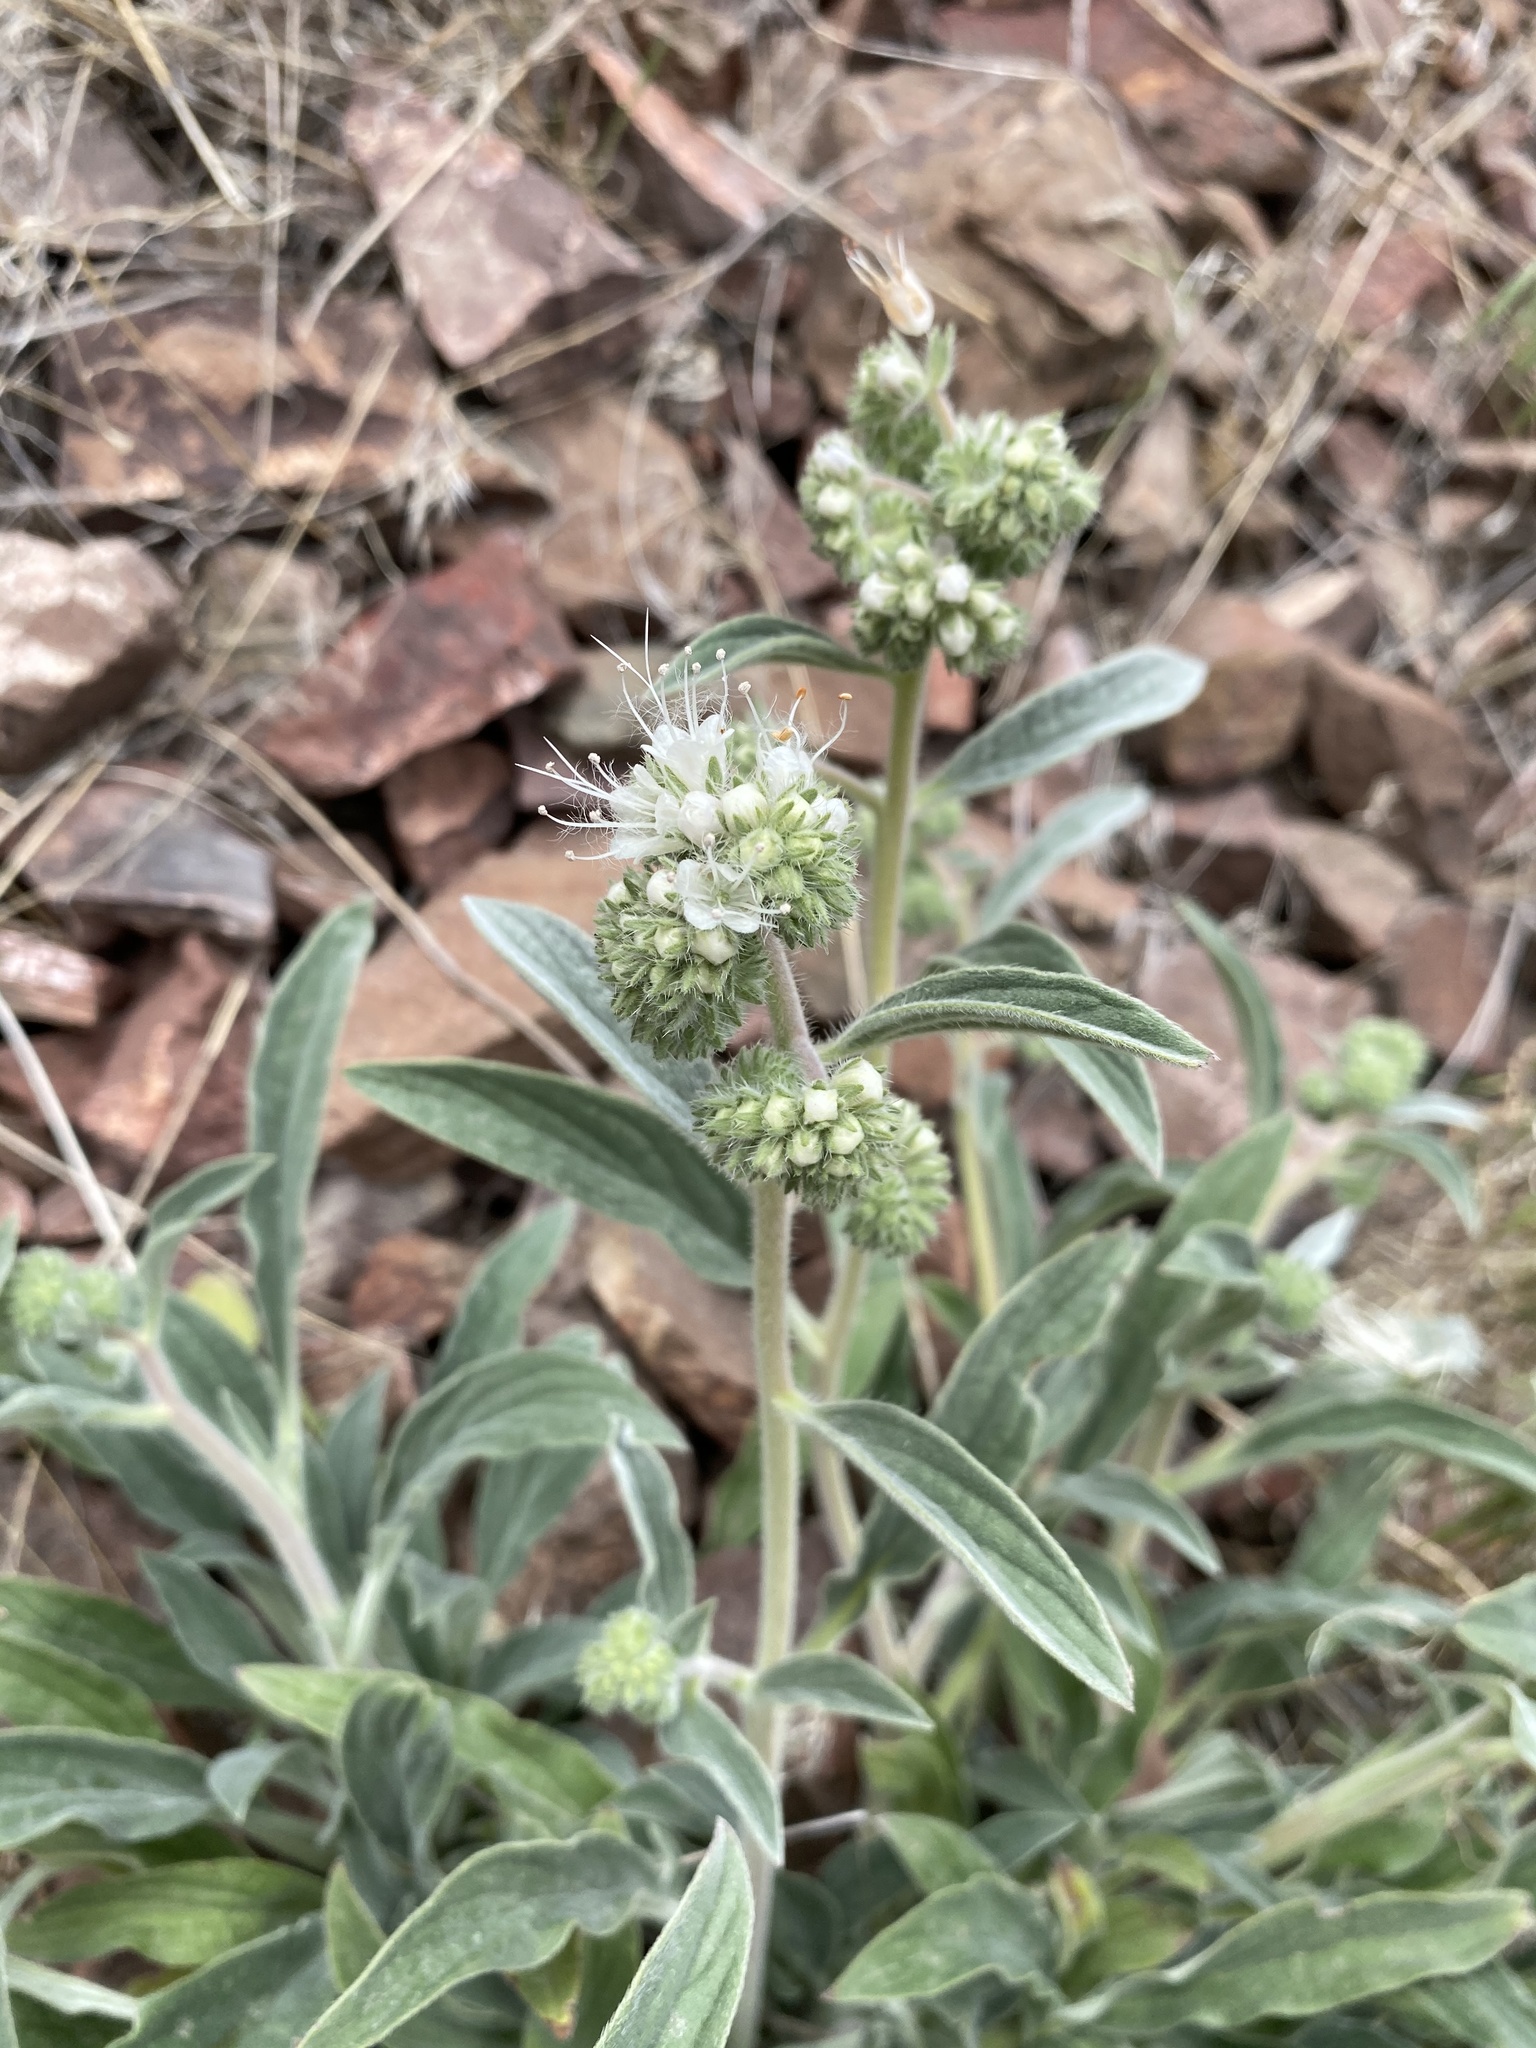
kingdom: Plantae
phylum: Tracheophyta
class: Magnoliopsida
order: Boraginales
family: Hydrophyllaceae
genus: Phacelia
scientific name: Phacelia hastata
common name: Silver-leaved phacelia
